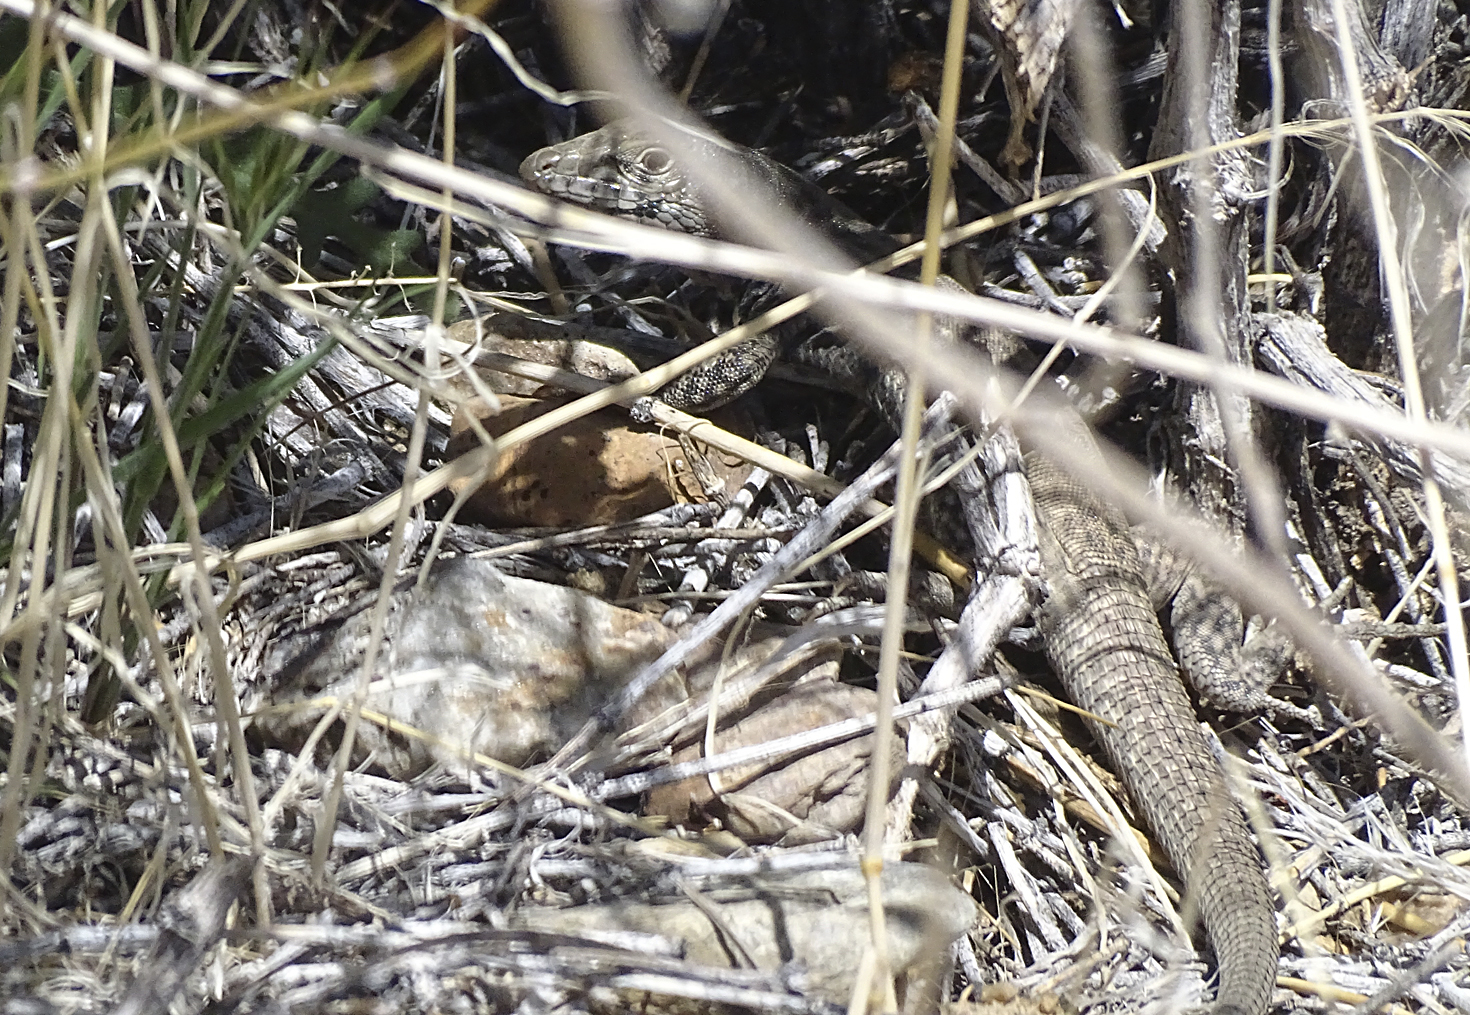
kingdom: Animalia
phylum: Chordata
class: Squamata
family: Teiidae
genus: Aspidoscelis
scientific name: Aspidoscelis tigris
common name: Tiger whiptail
